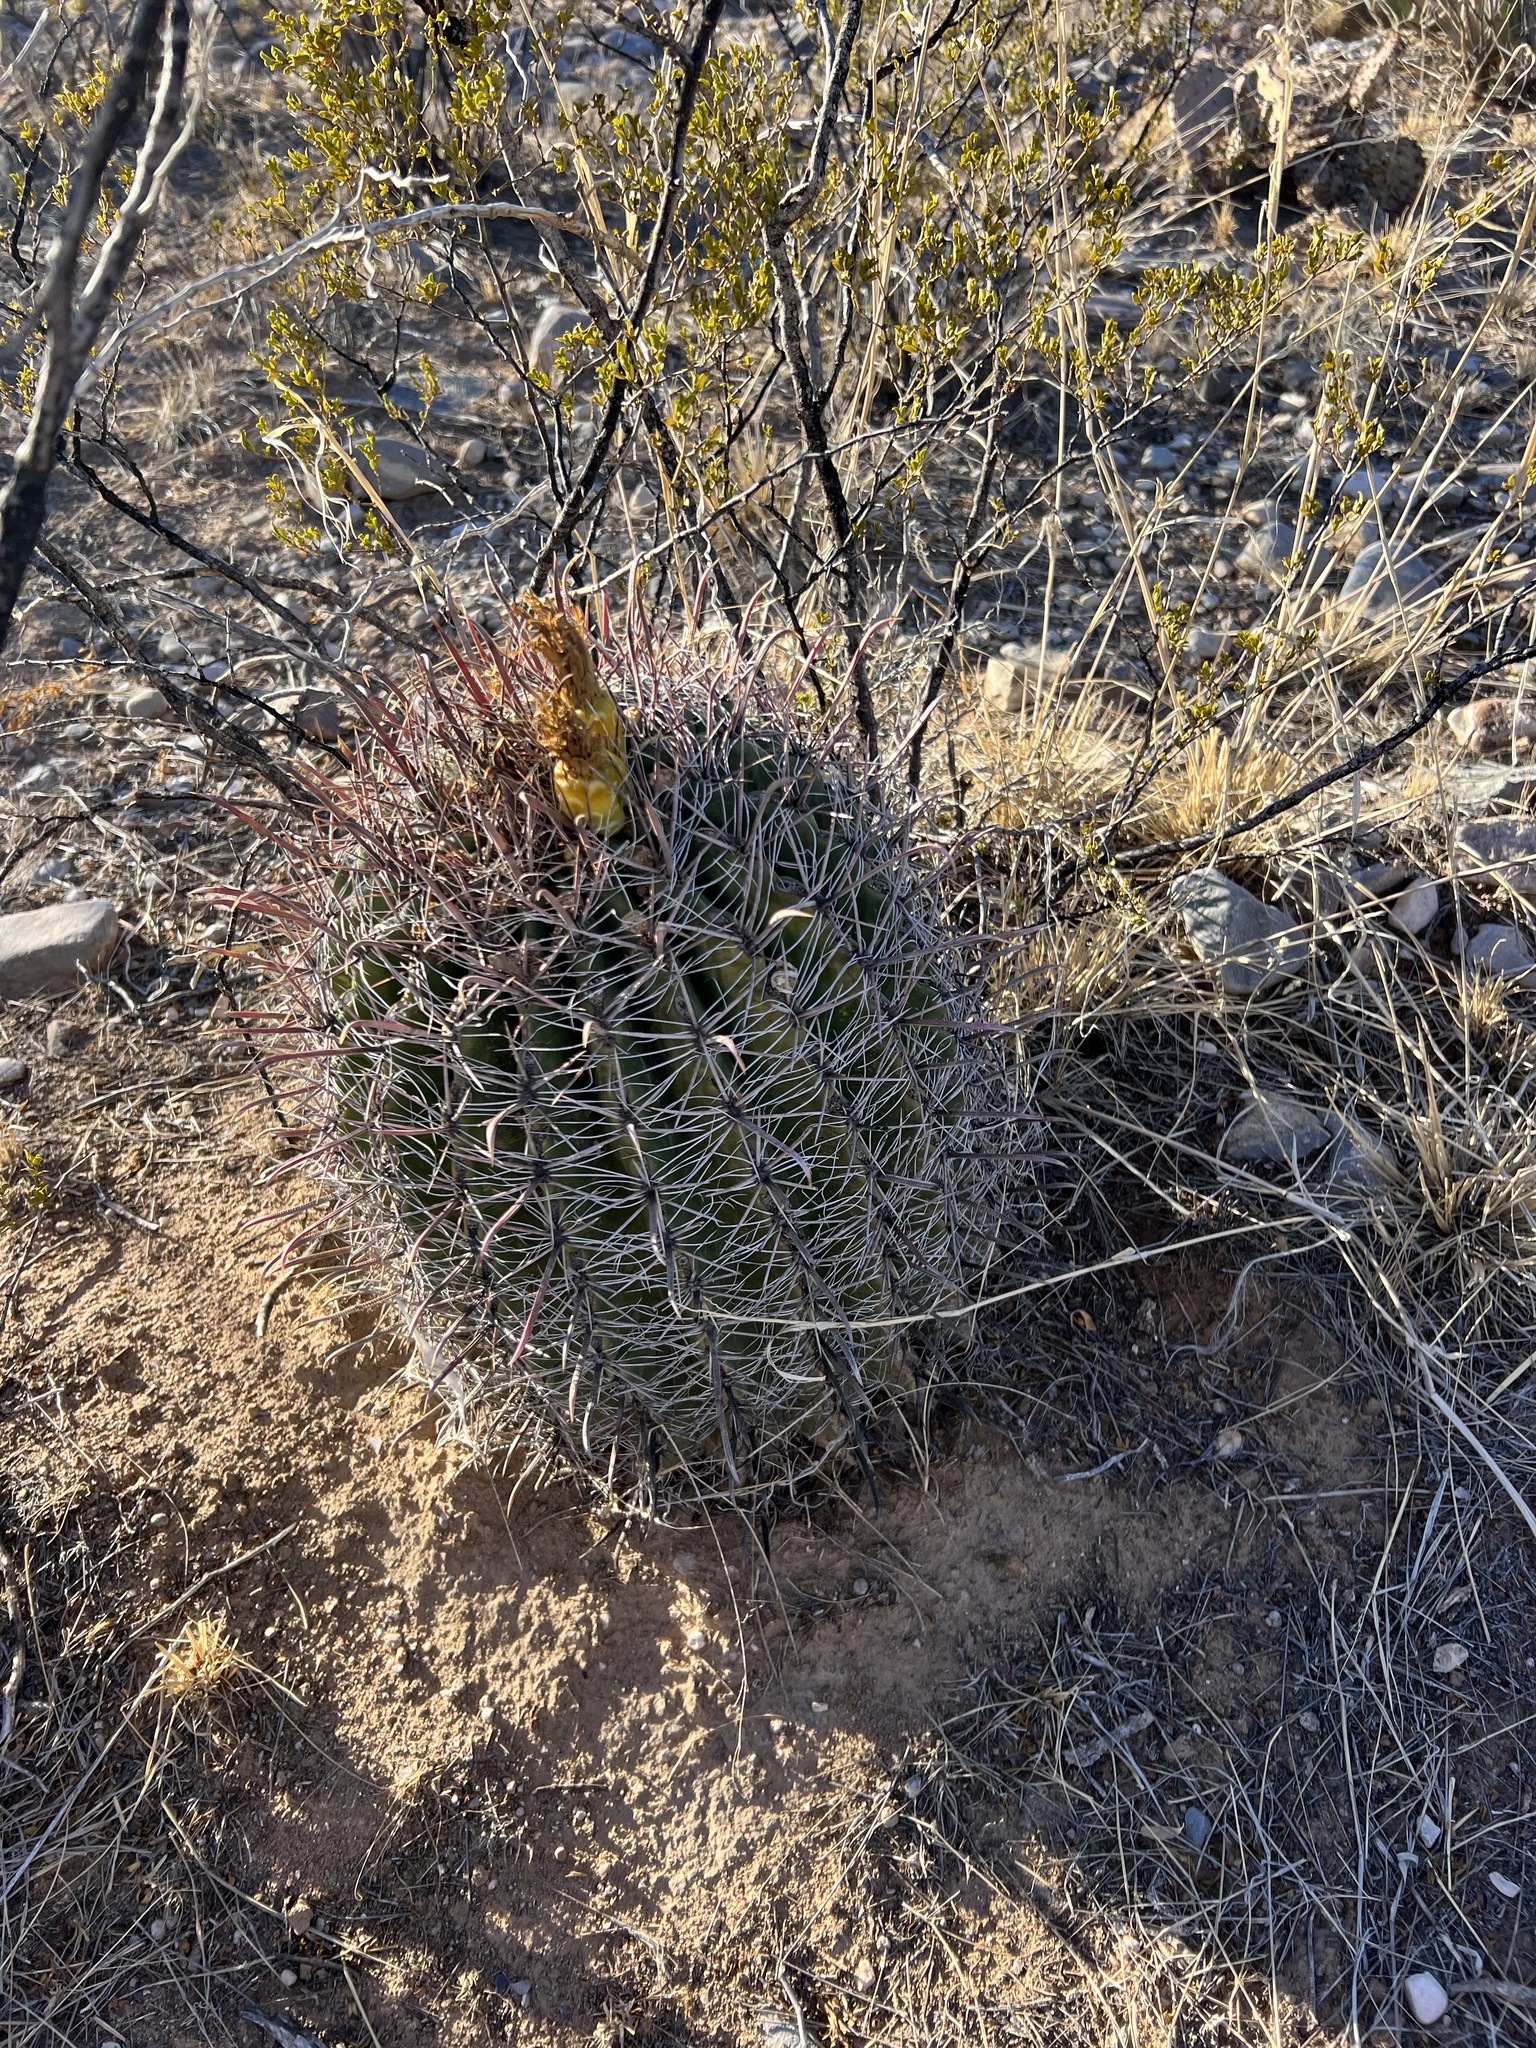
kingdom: Plantae
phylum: Tracheophyta
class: Magnoliopsida
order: Caryophyllales
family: Cactaceae
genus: Ferocactus
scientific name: Ferocactus wislizeni
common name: Candy barrel cactus
